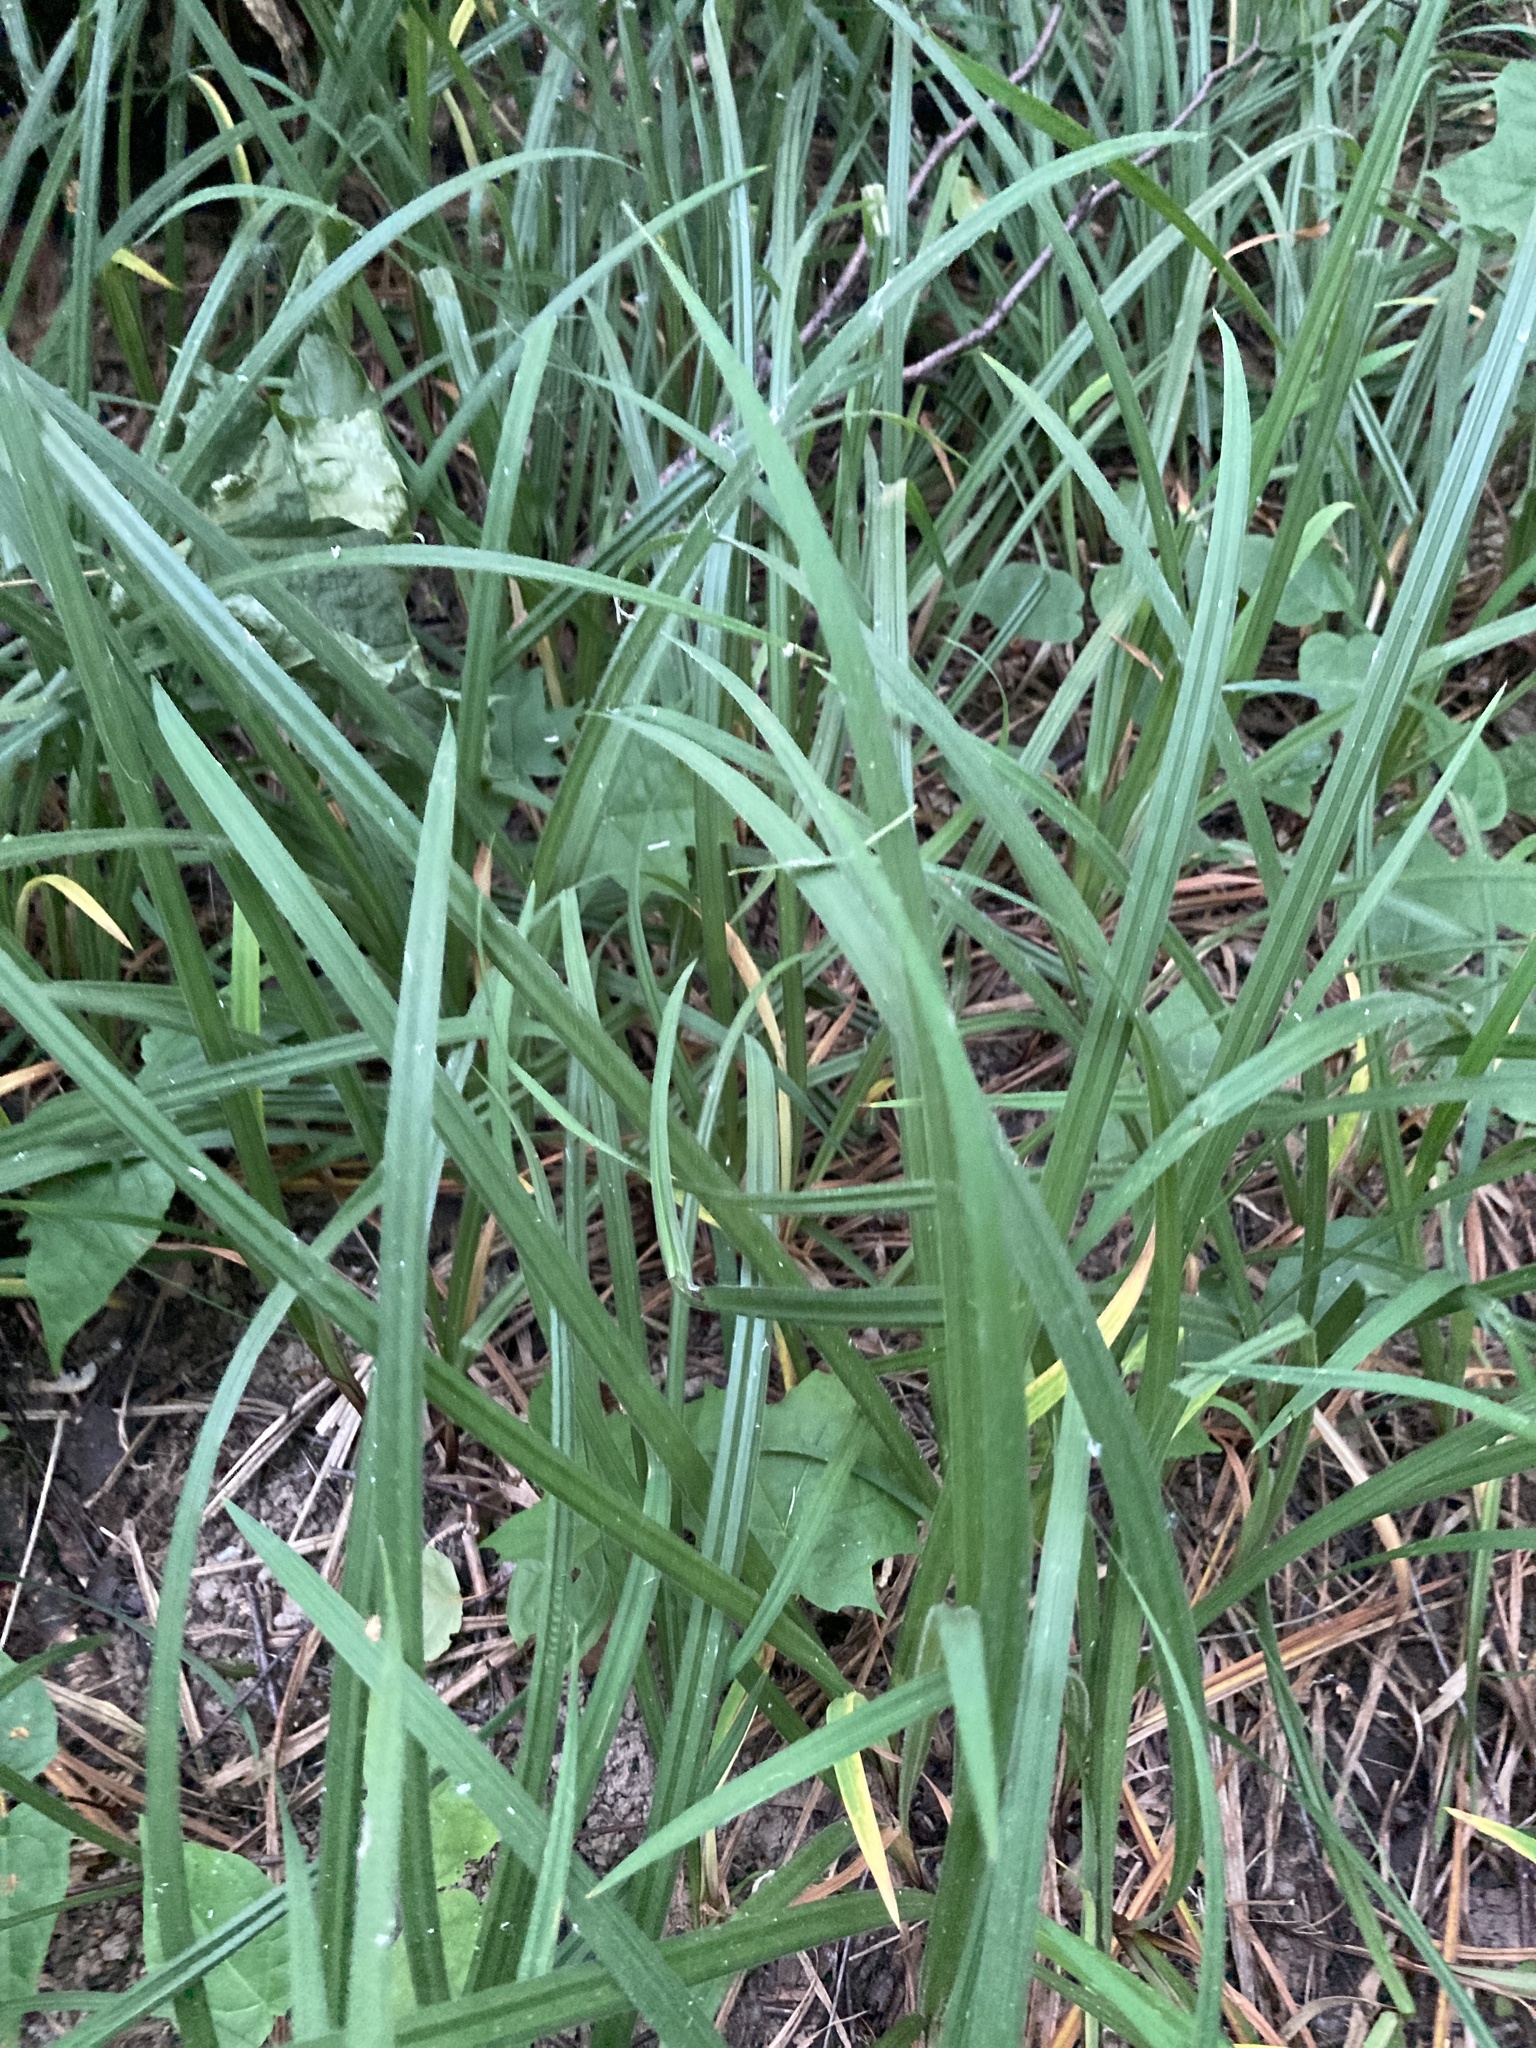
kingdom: Plantae
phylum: Tracheophyta
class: Liliopsida
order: Poales
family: Cyperaceae
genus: Carex
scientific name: Carex pilosa
